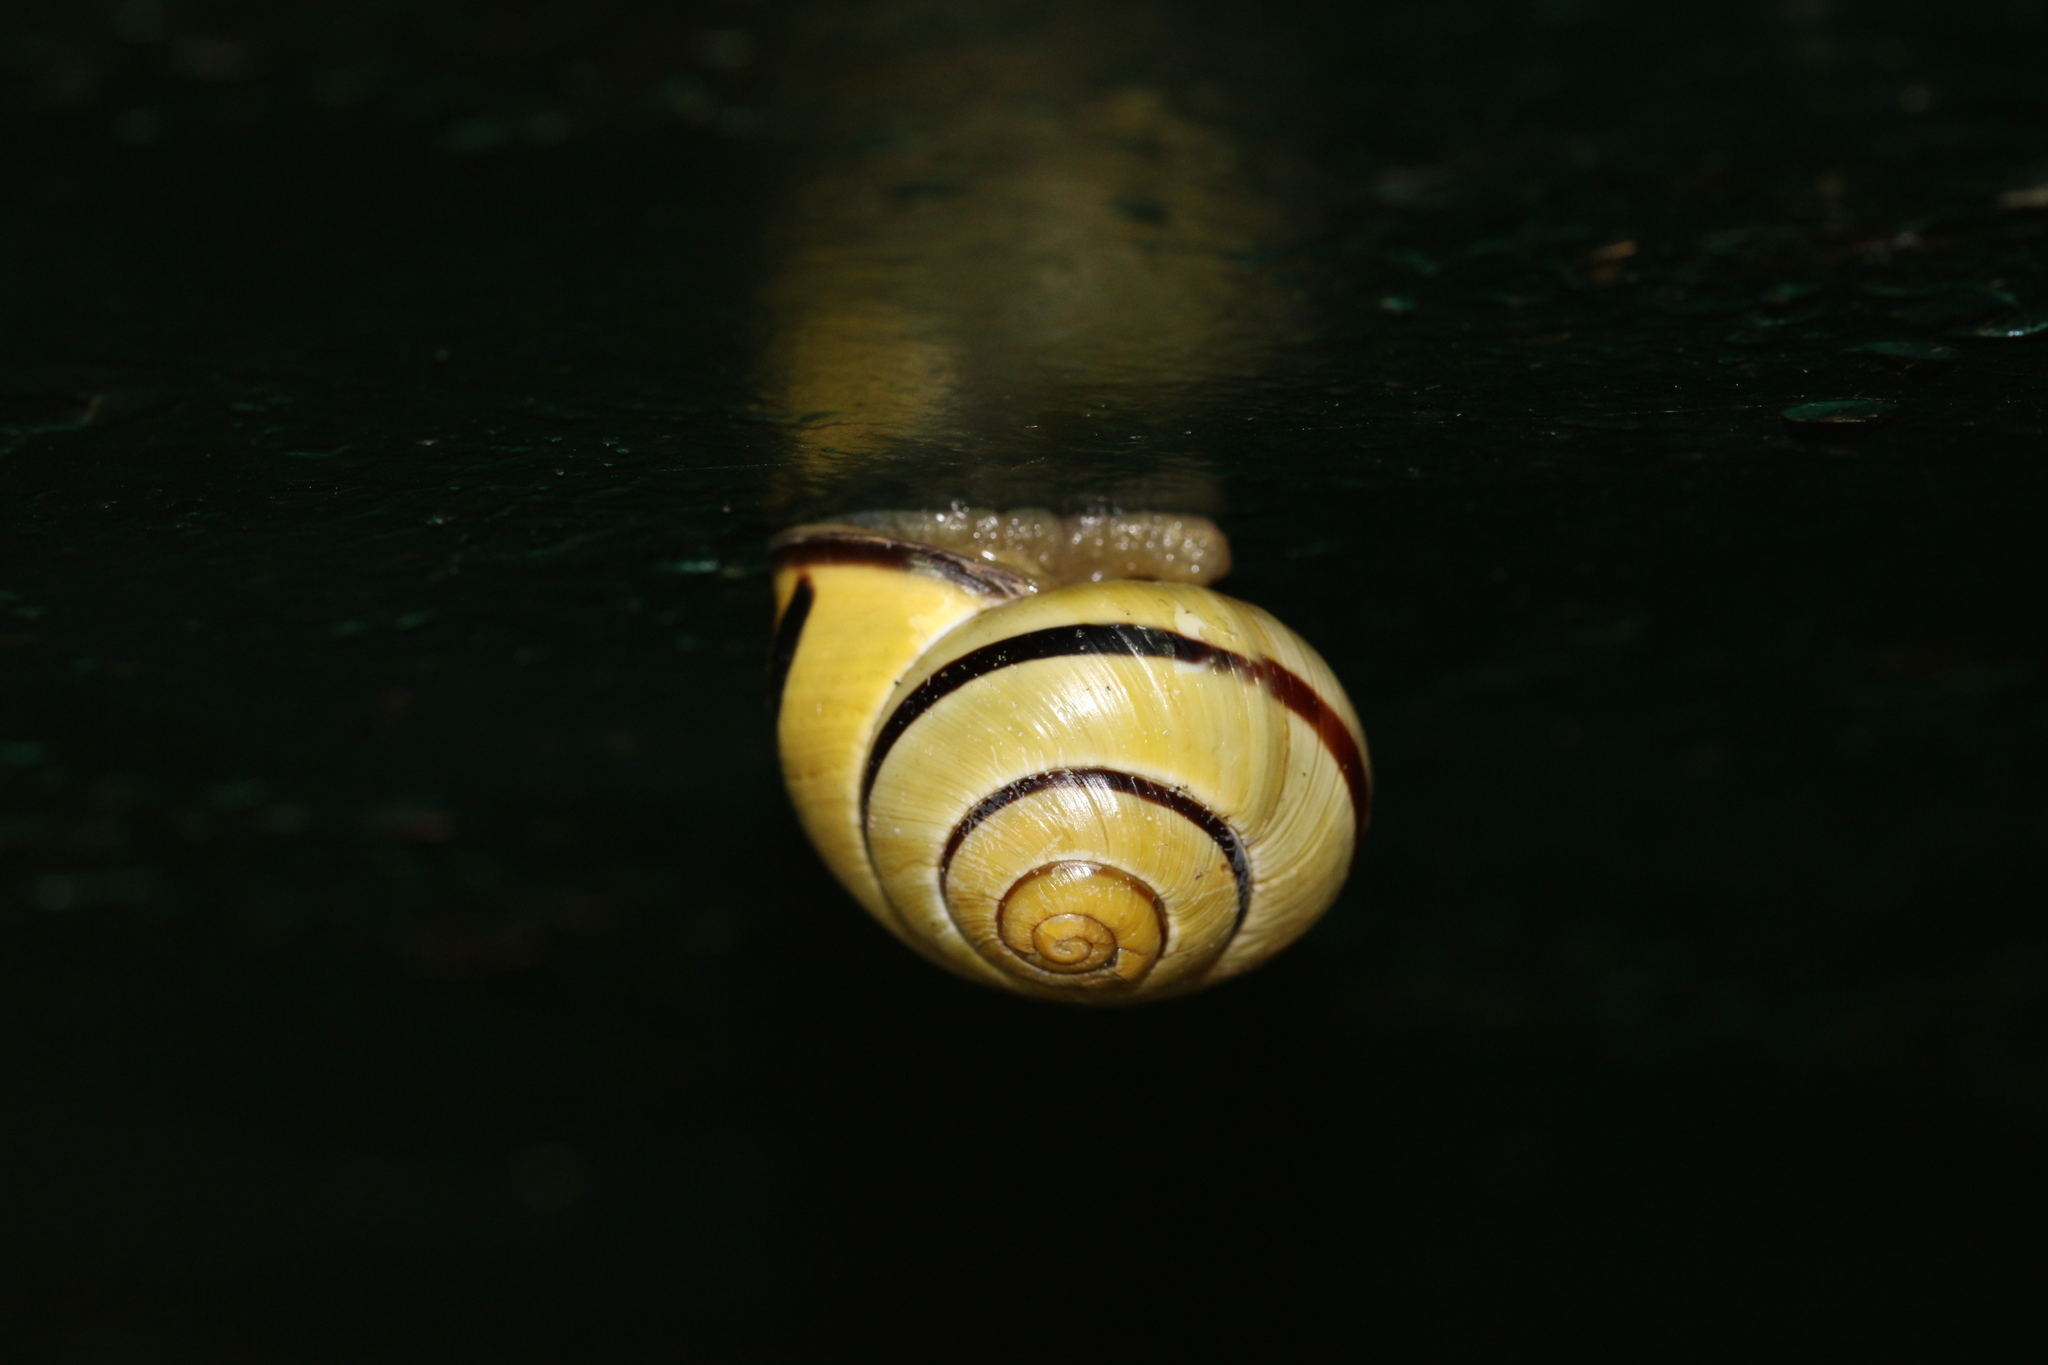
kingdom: Animalia
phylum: Mollusca
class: Gastropoda
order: Stylommatophora
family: Helicidae
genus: Cepaea
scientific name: Cepaea nemoralis
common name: Grovesnail
